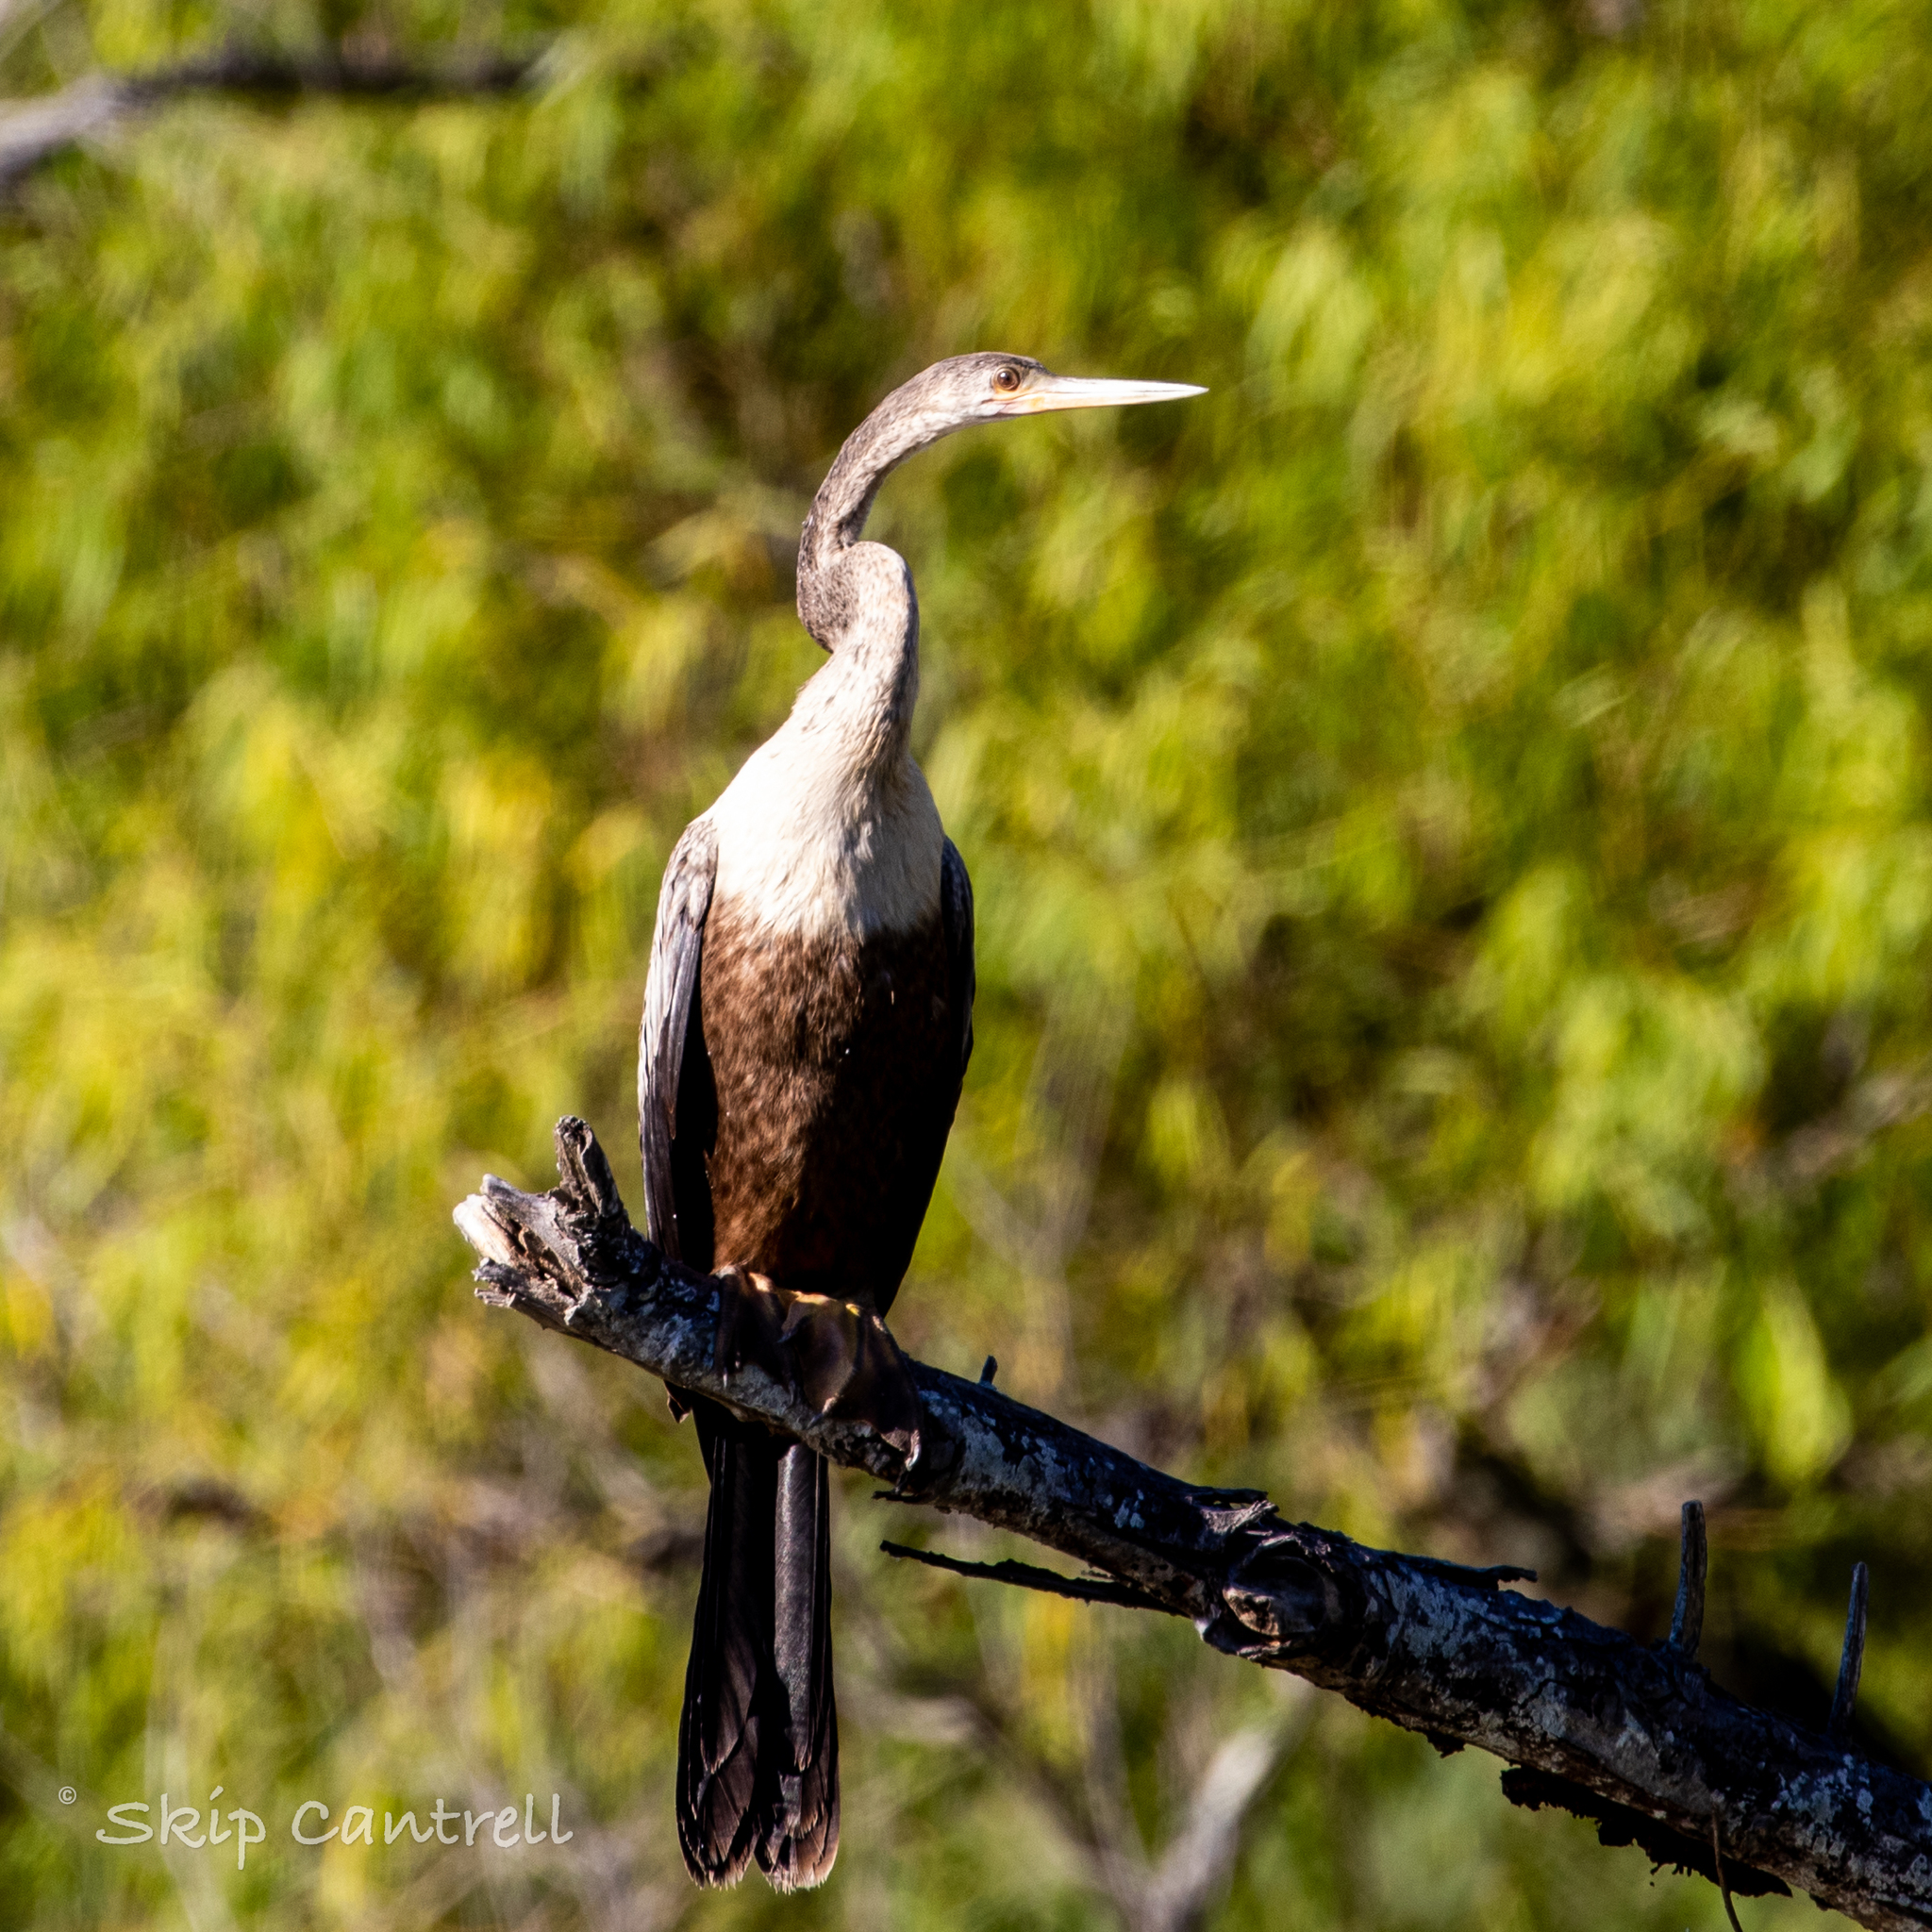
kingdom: Animalia
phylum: Chordata
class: Aves
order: Suliformes
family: Anhingidae
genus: Anhinga
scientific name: Anhinga anhinga
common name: Anhinga
